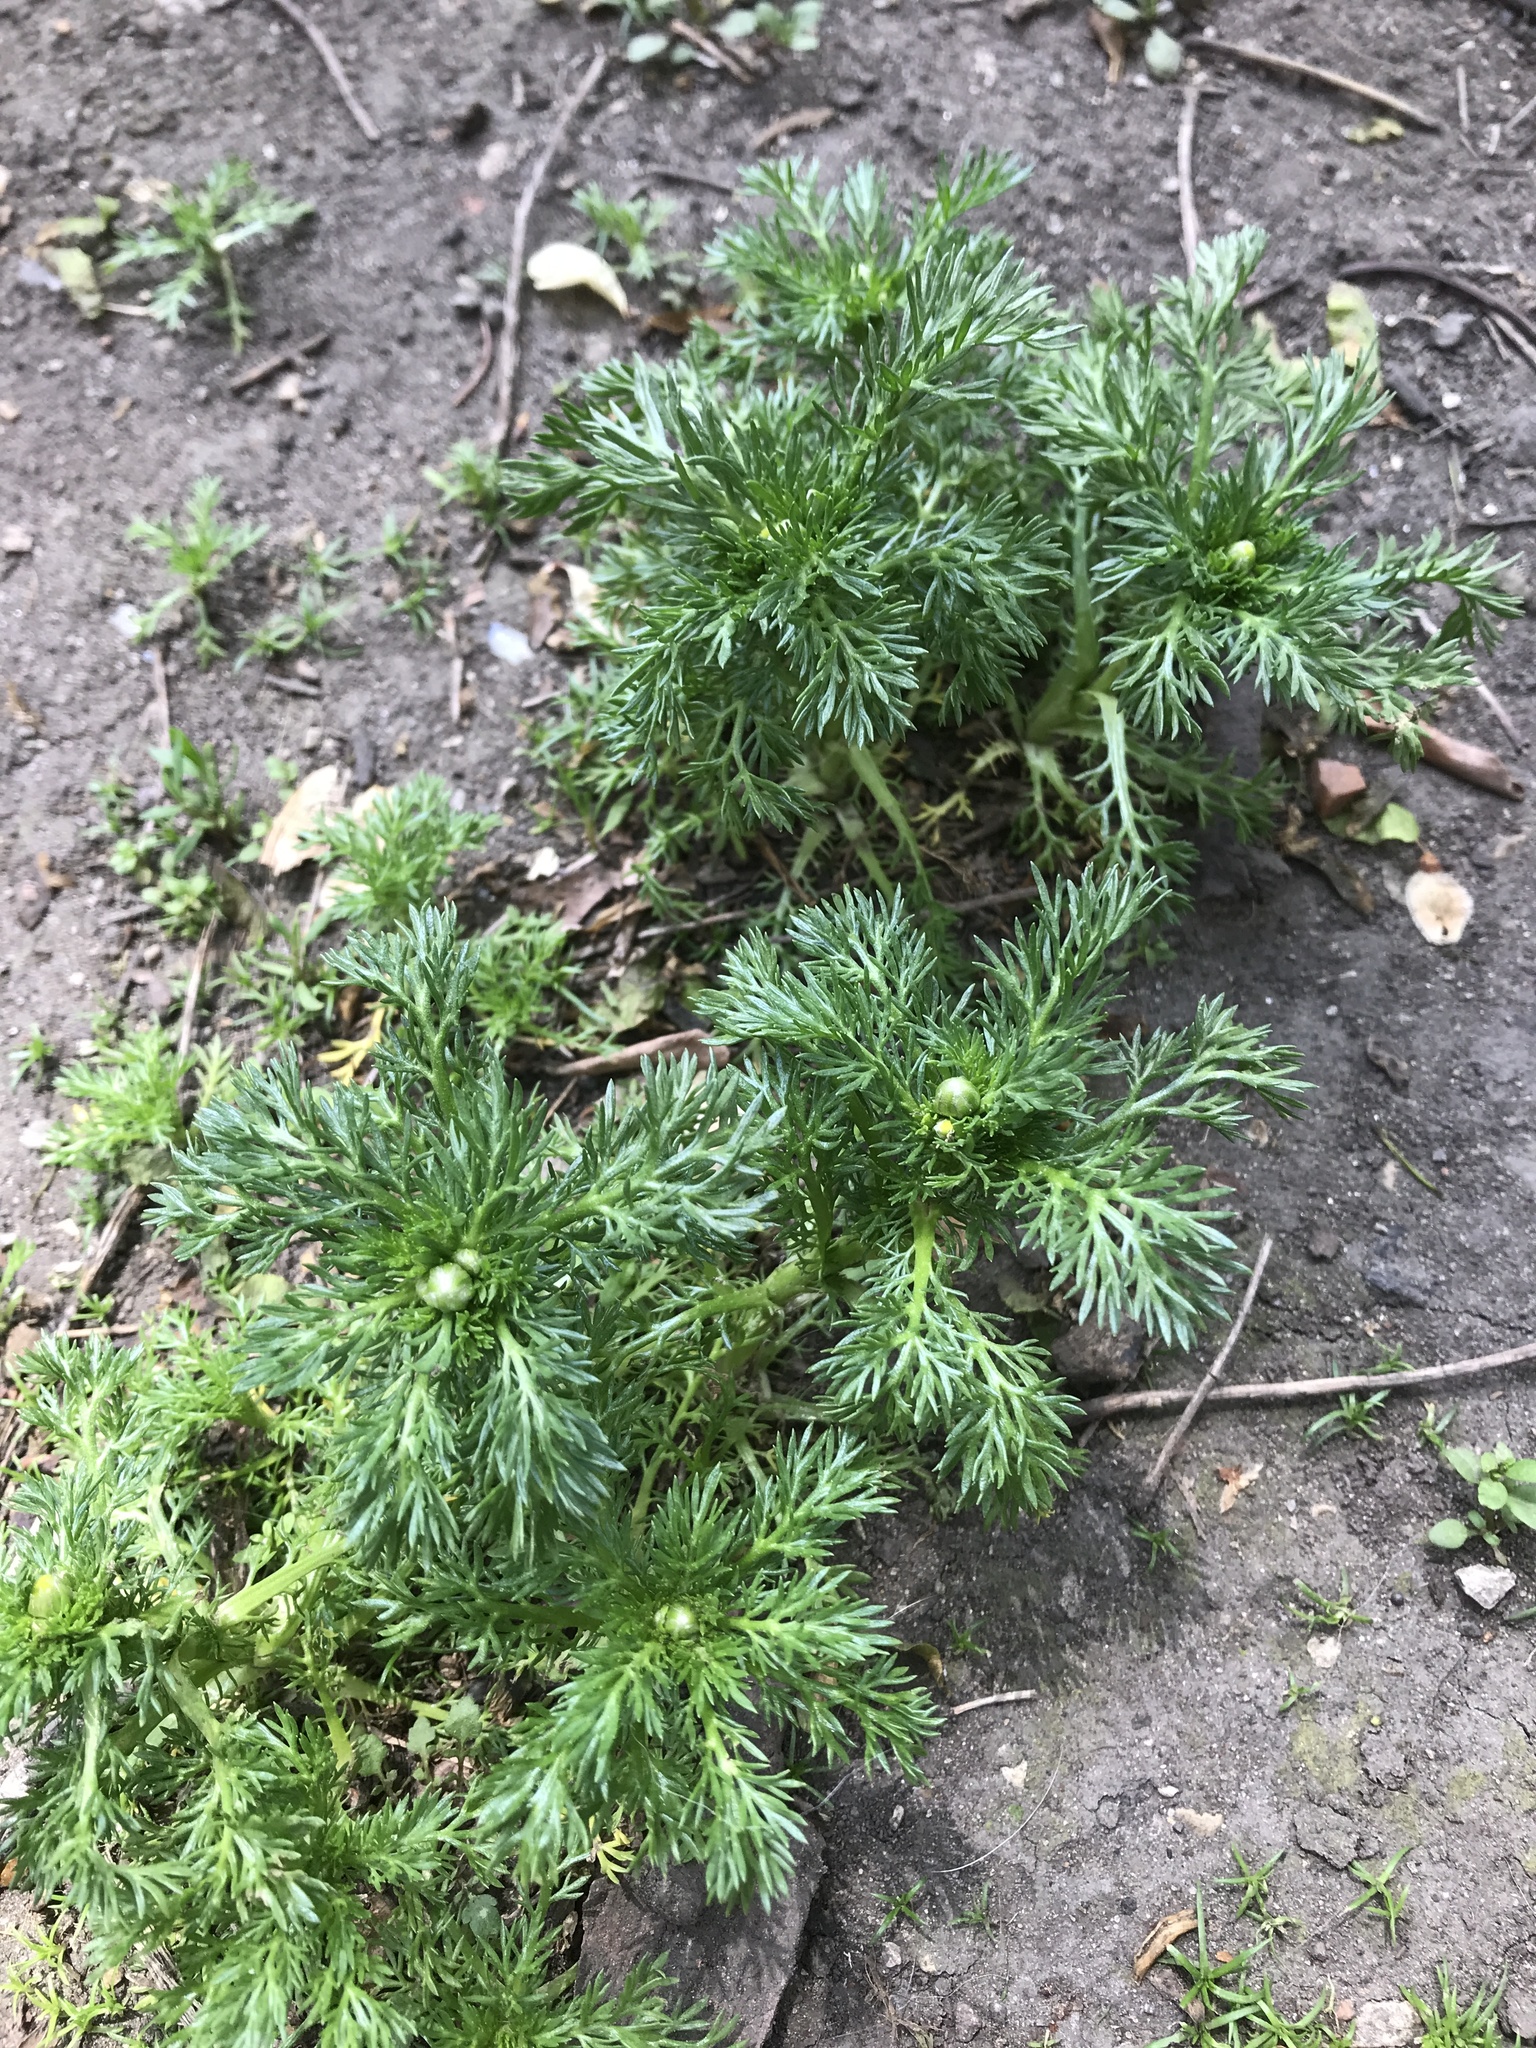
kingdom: Plantae
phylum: Tracheophyta
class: Magnoliopsida
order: Asterales
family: Asteraceae
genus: Matricaria
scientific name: Matricaria discoidea
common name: Disc mayweed
